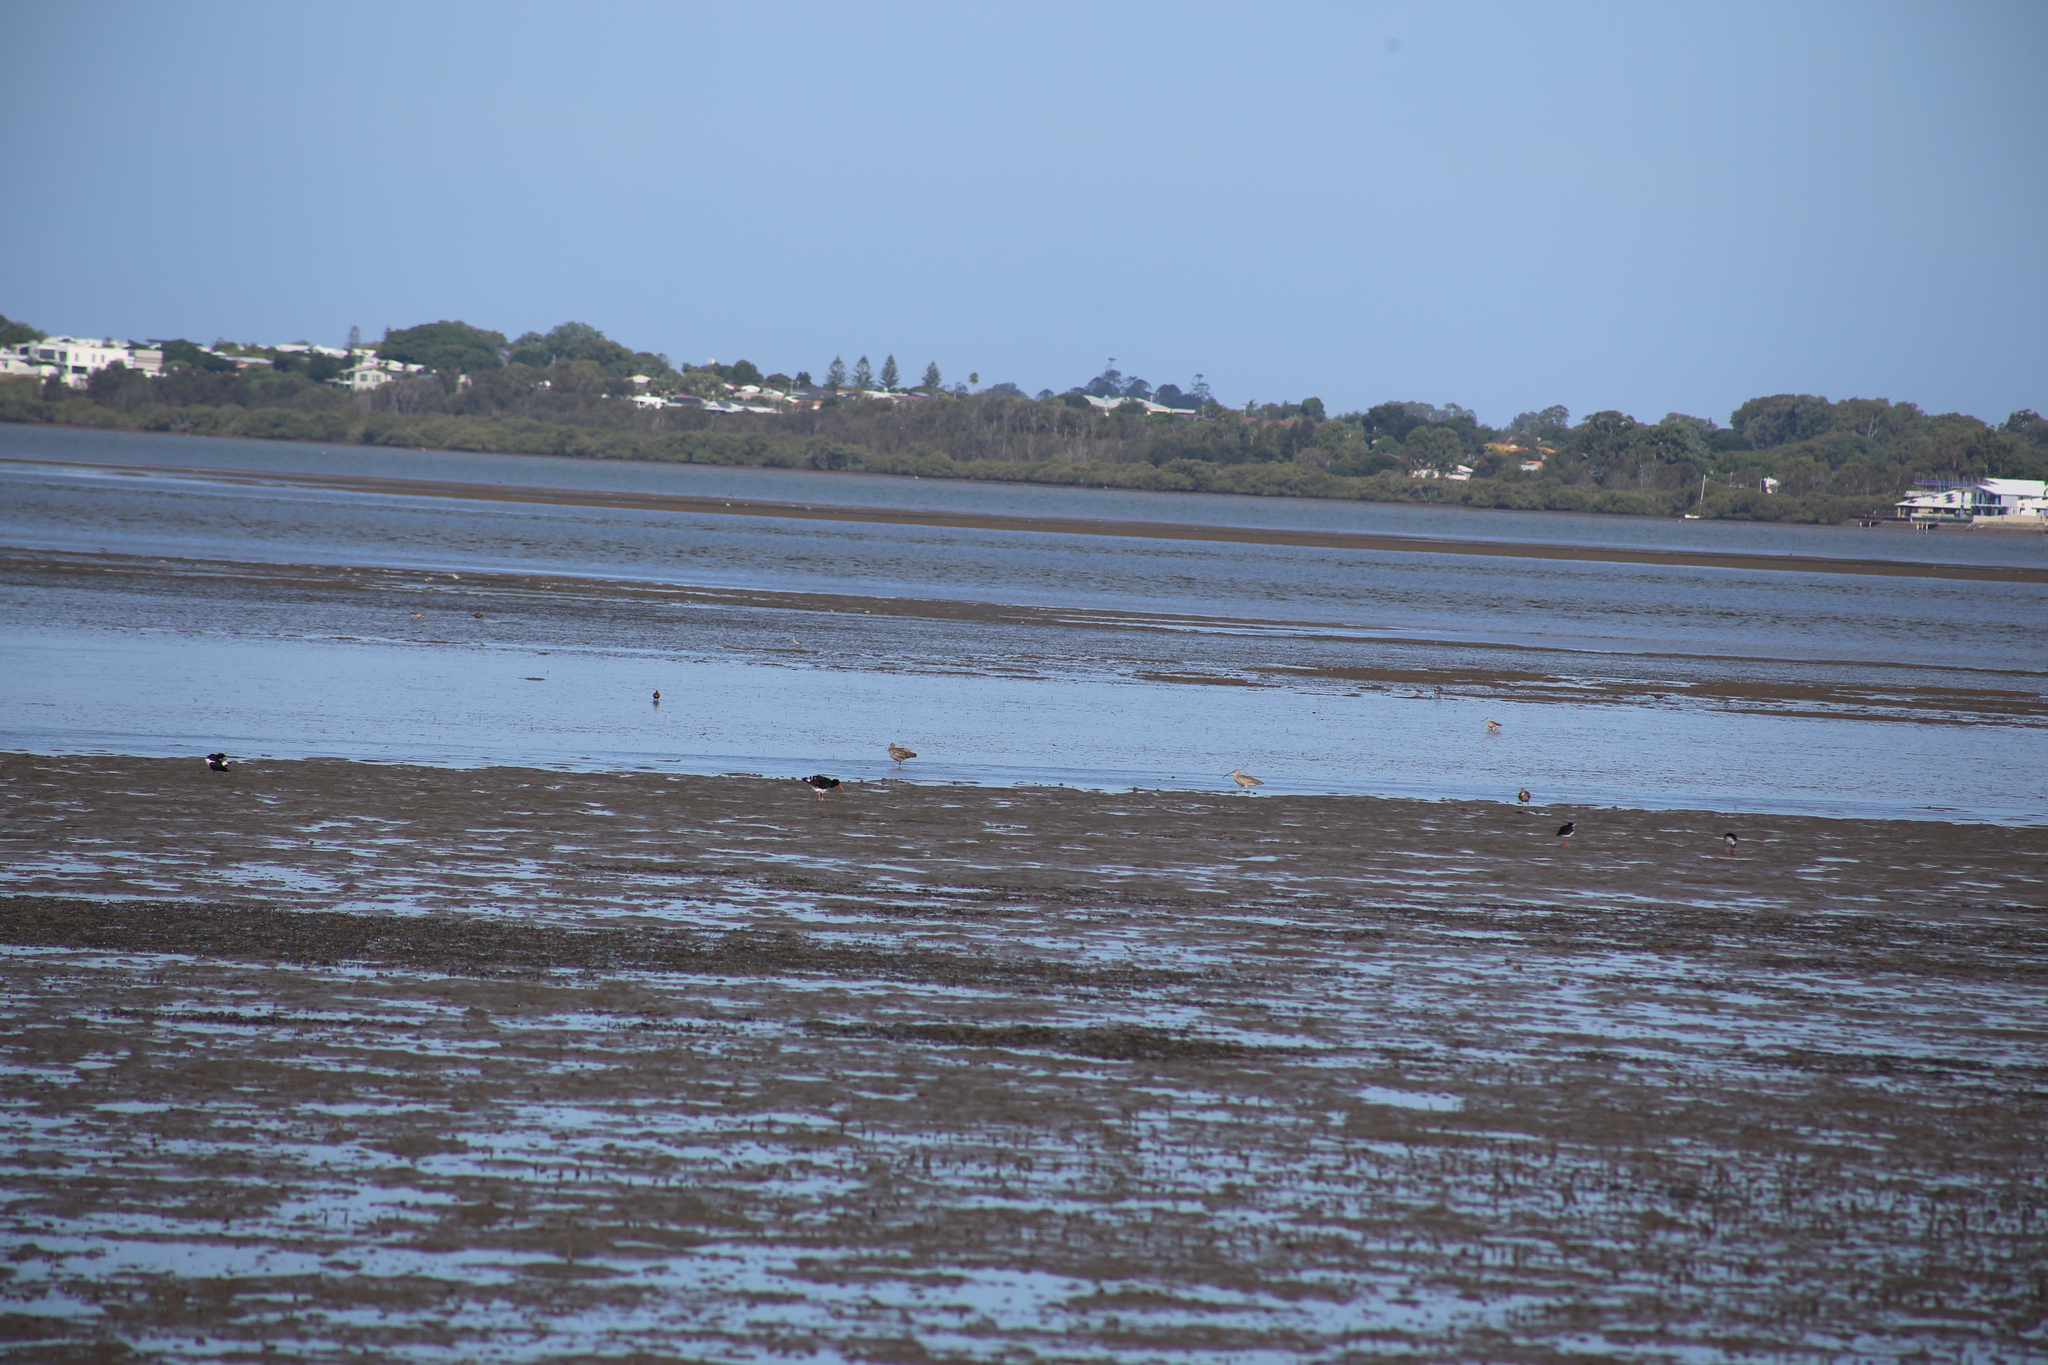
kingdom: Animalia
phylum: Chordata
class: Aves
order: Charadriiformes
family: Scolopacidae
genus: Numenius
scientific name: Numenius madagascariensis
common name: Far eastern curlew
